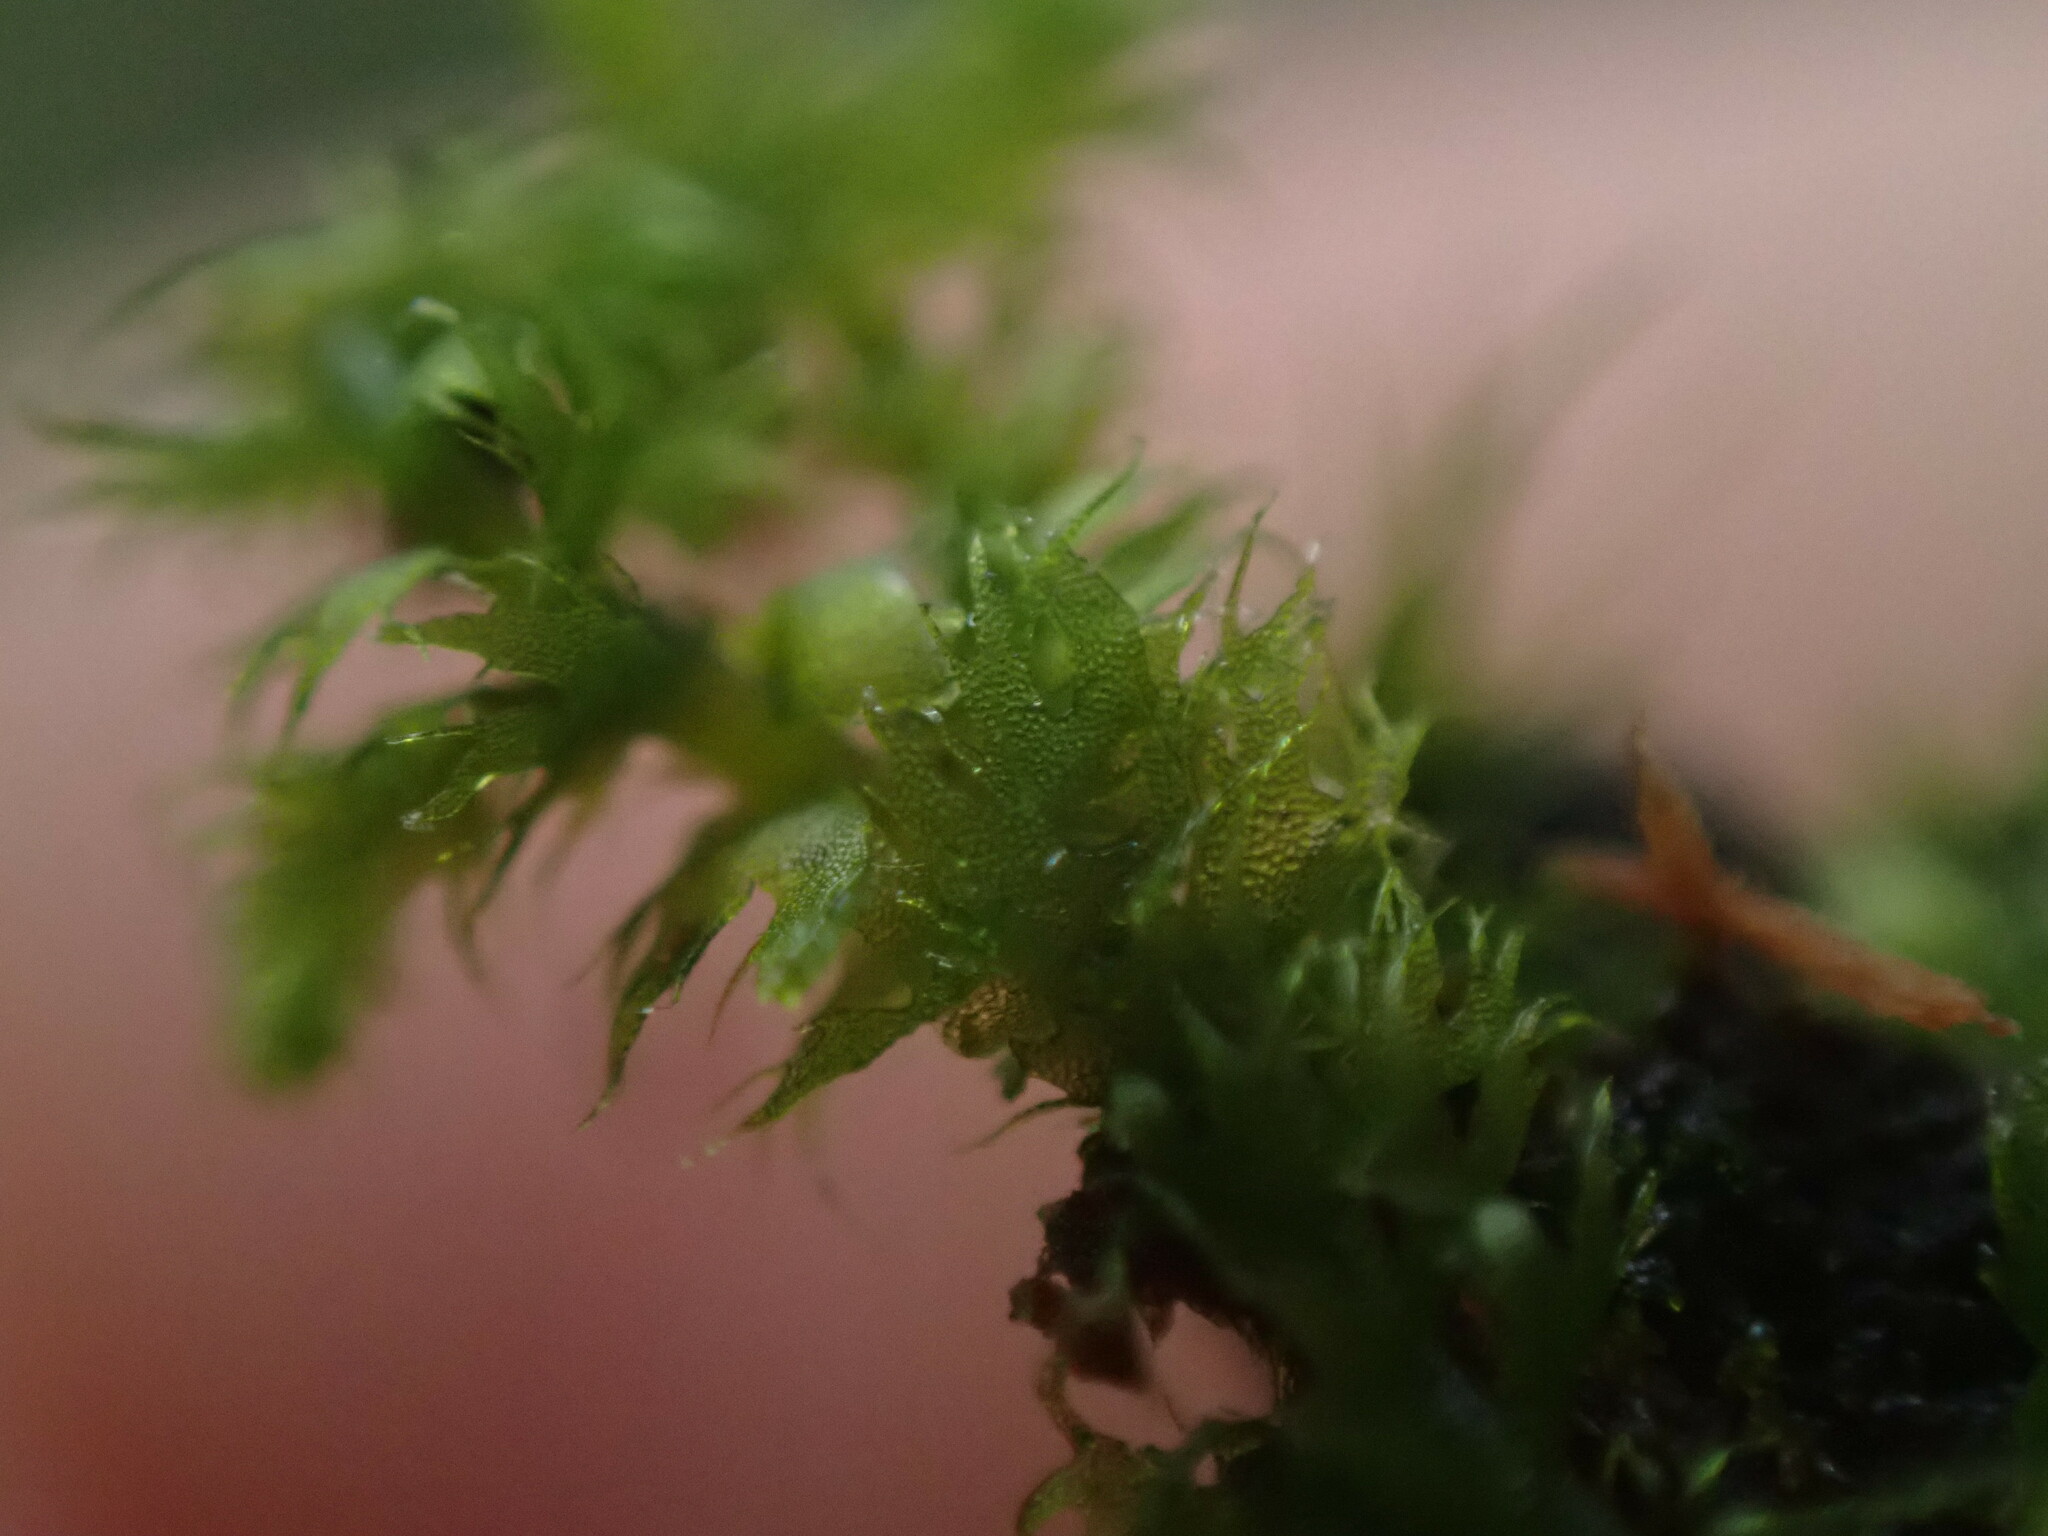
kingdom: Plantae
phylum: Marchantiophyta
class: Jungermanniopsida
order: Ptilidiales
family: Ptilidiaceae
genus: Ptilidium
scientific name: Ptilidium californicum
